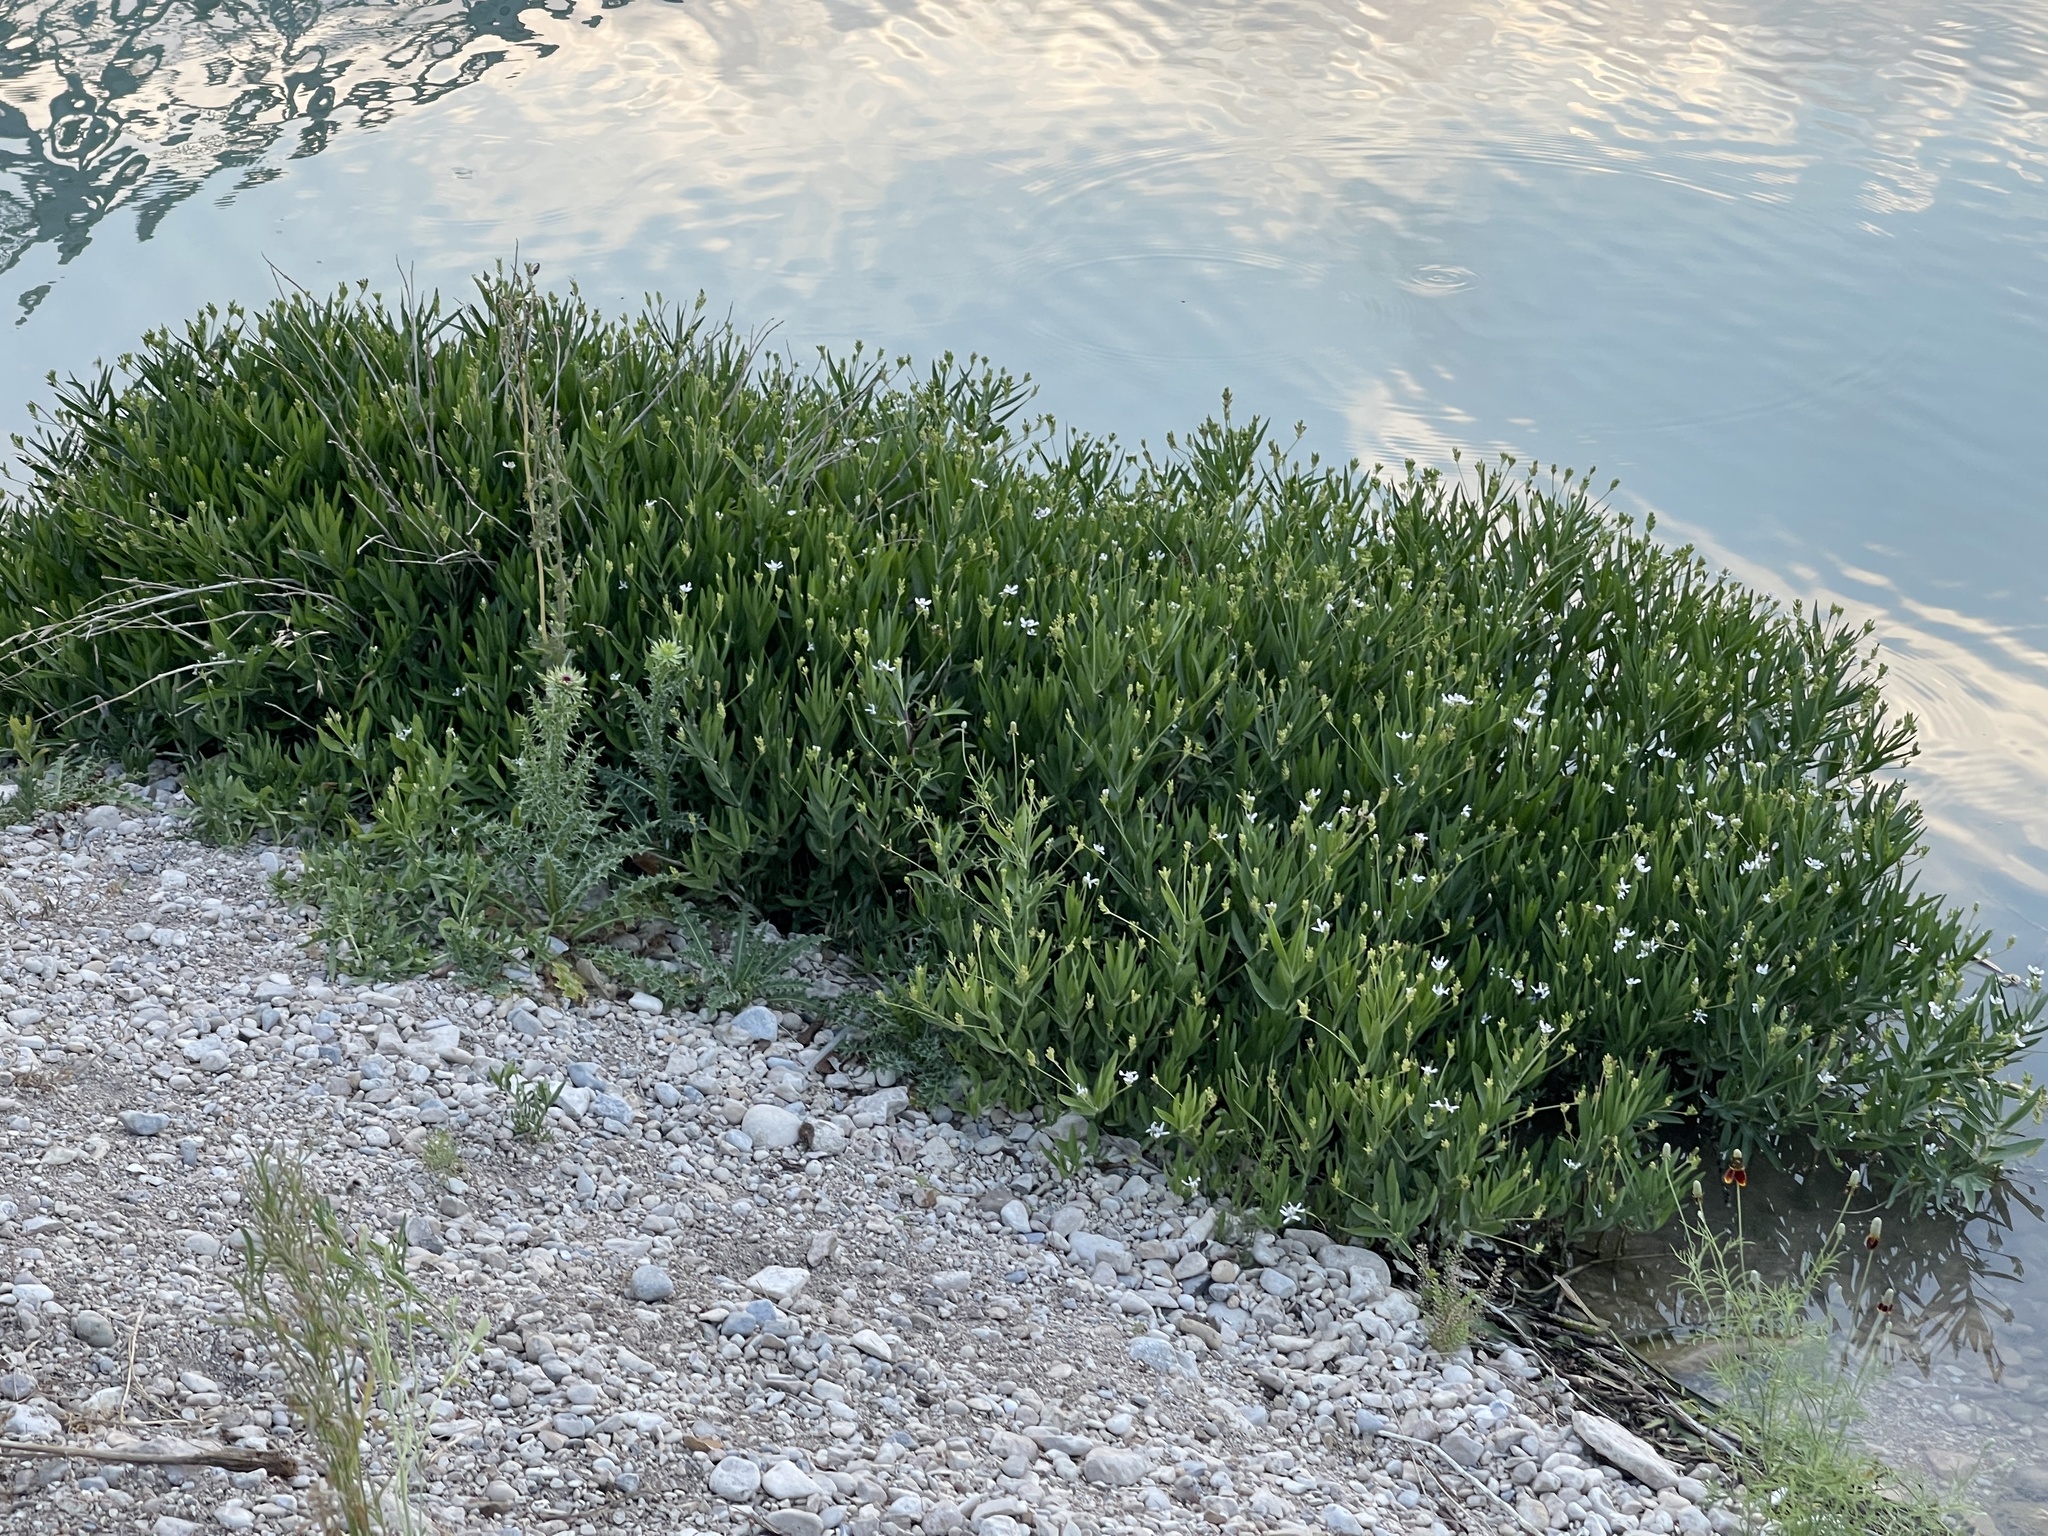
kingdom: Plantae
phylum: Tracheophyta
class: Magnoliopsida
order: Lamiales
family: Acanthaceae
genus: Dianthera
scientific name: Dianthera americana
